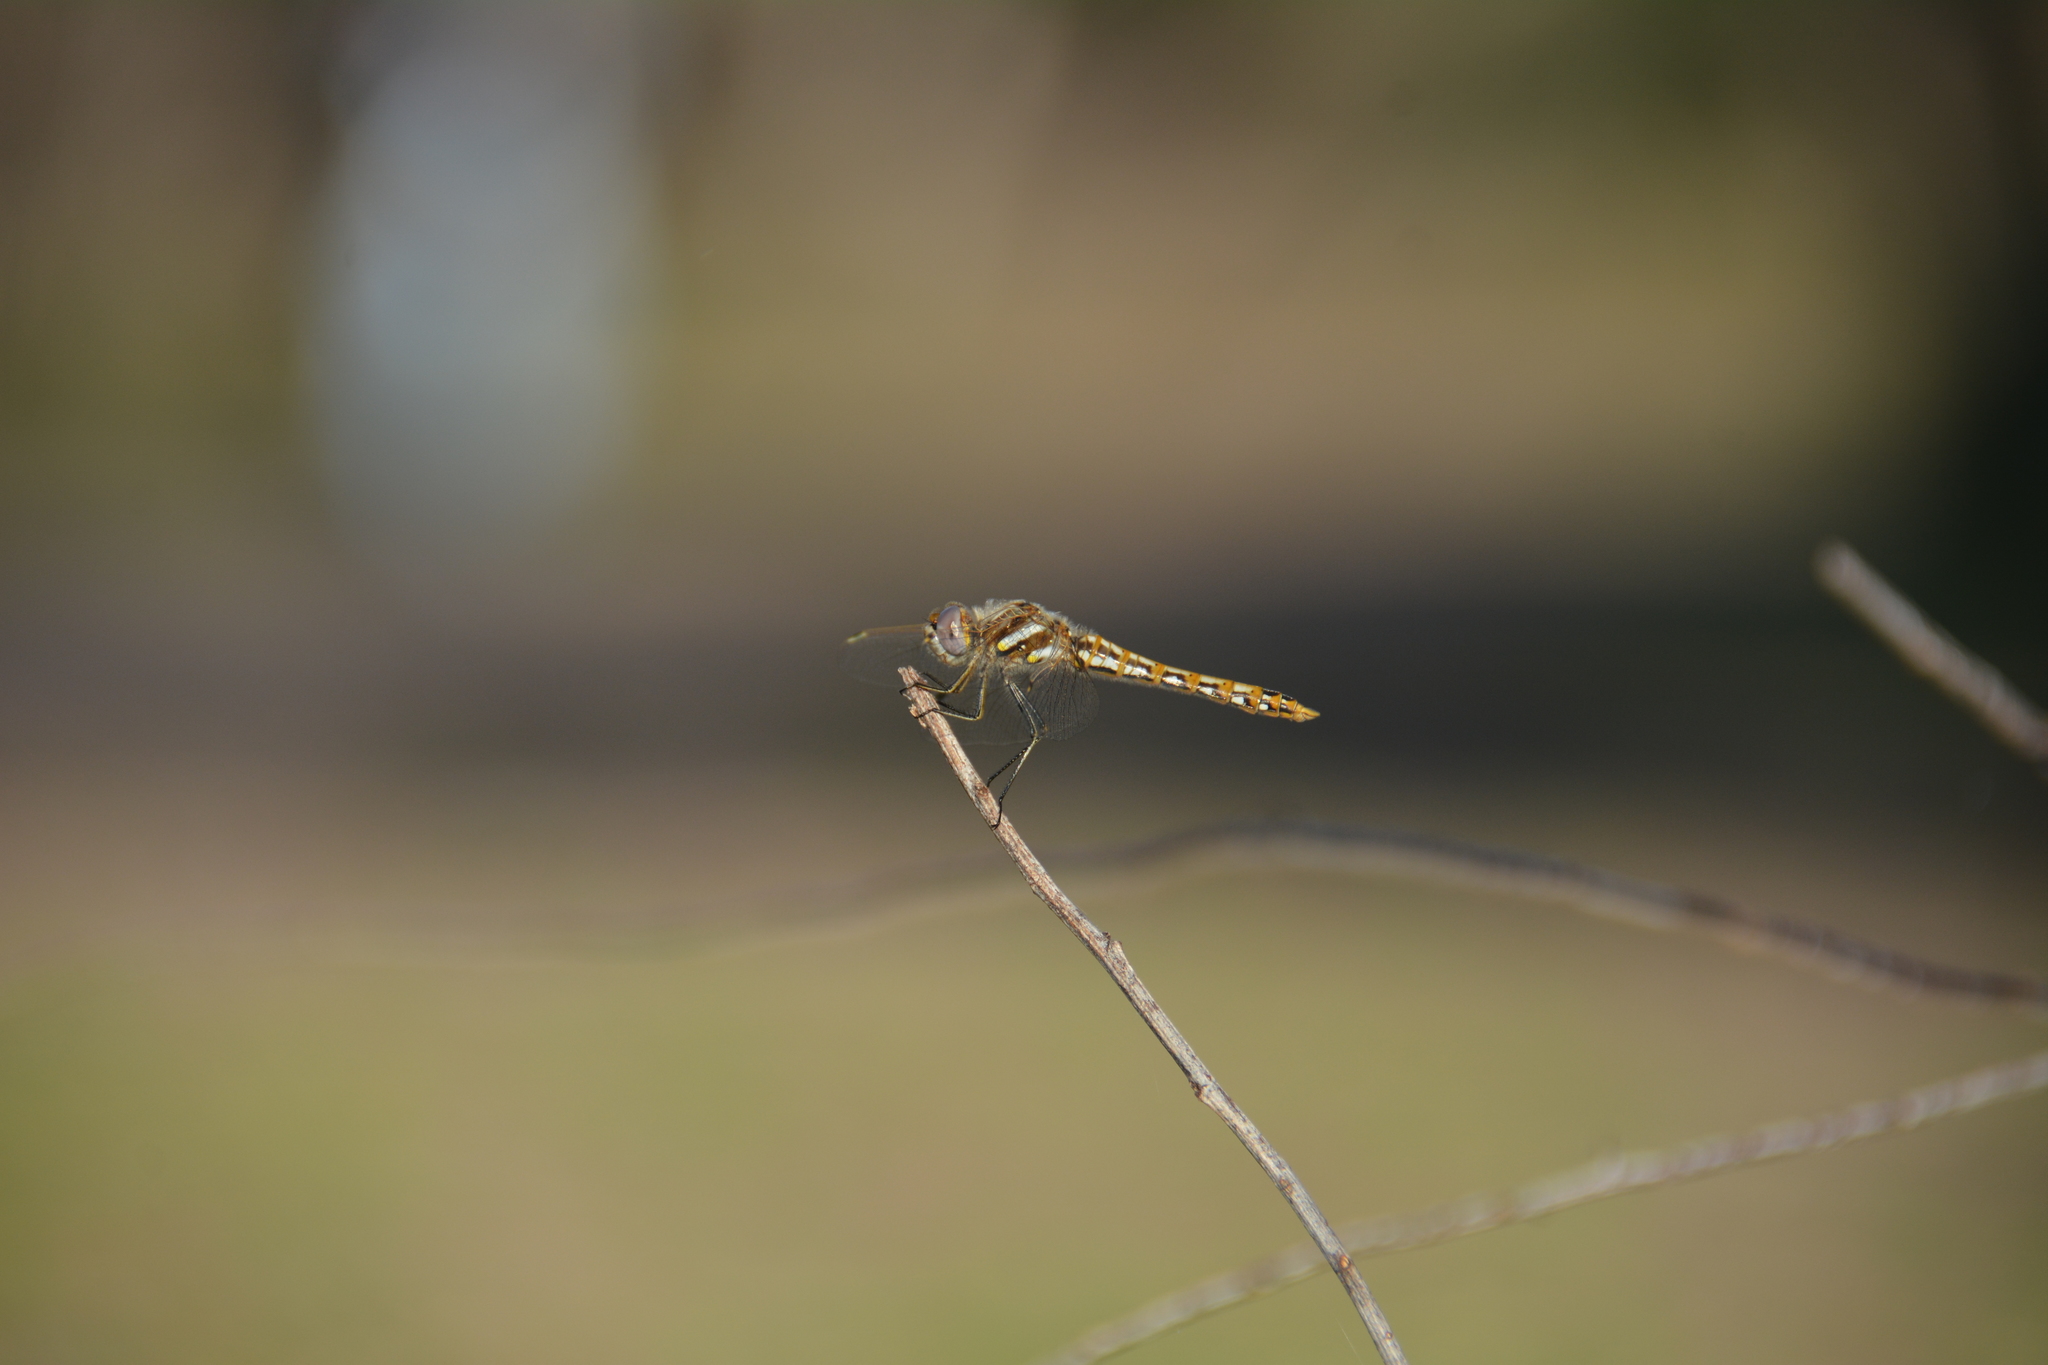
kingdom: Animalia
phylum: Arthropoda
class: Insecta
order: Odonata
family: Libellulidae
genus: Sympetrum
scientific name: Sympetrum corruptum
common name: Variegated meadowhawk
